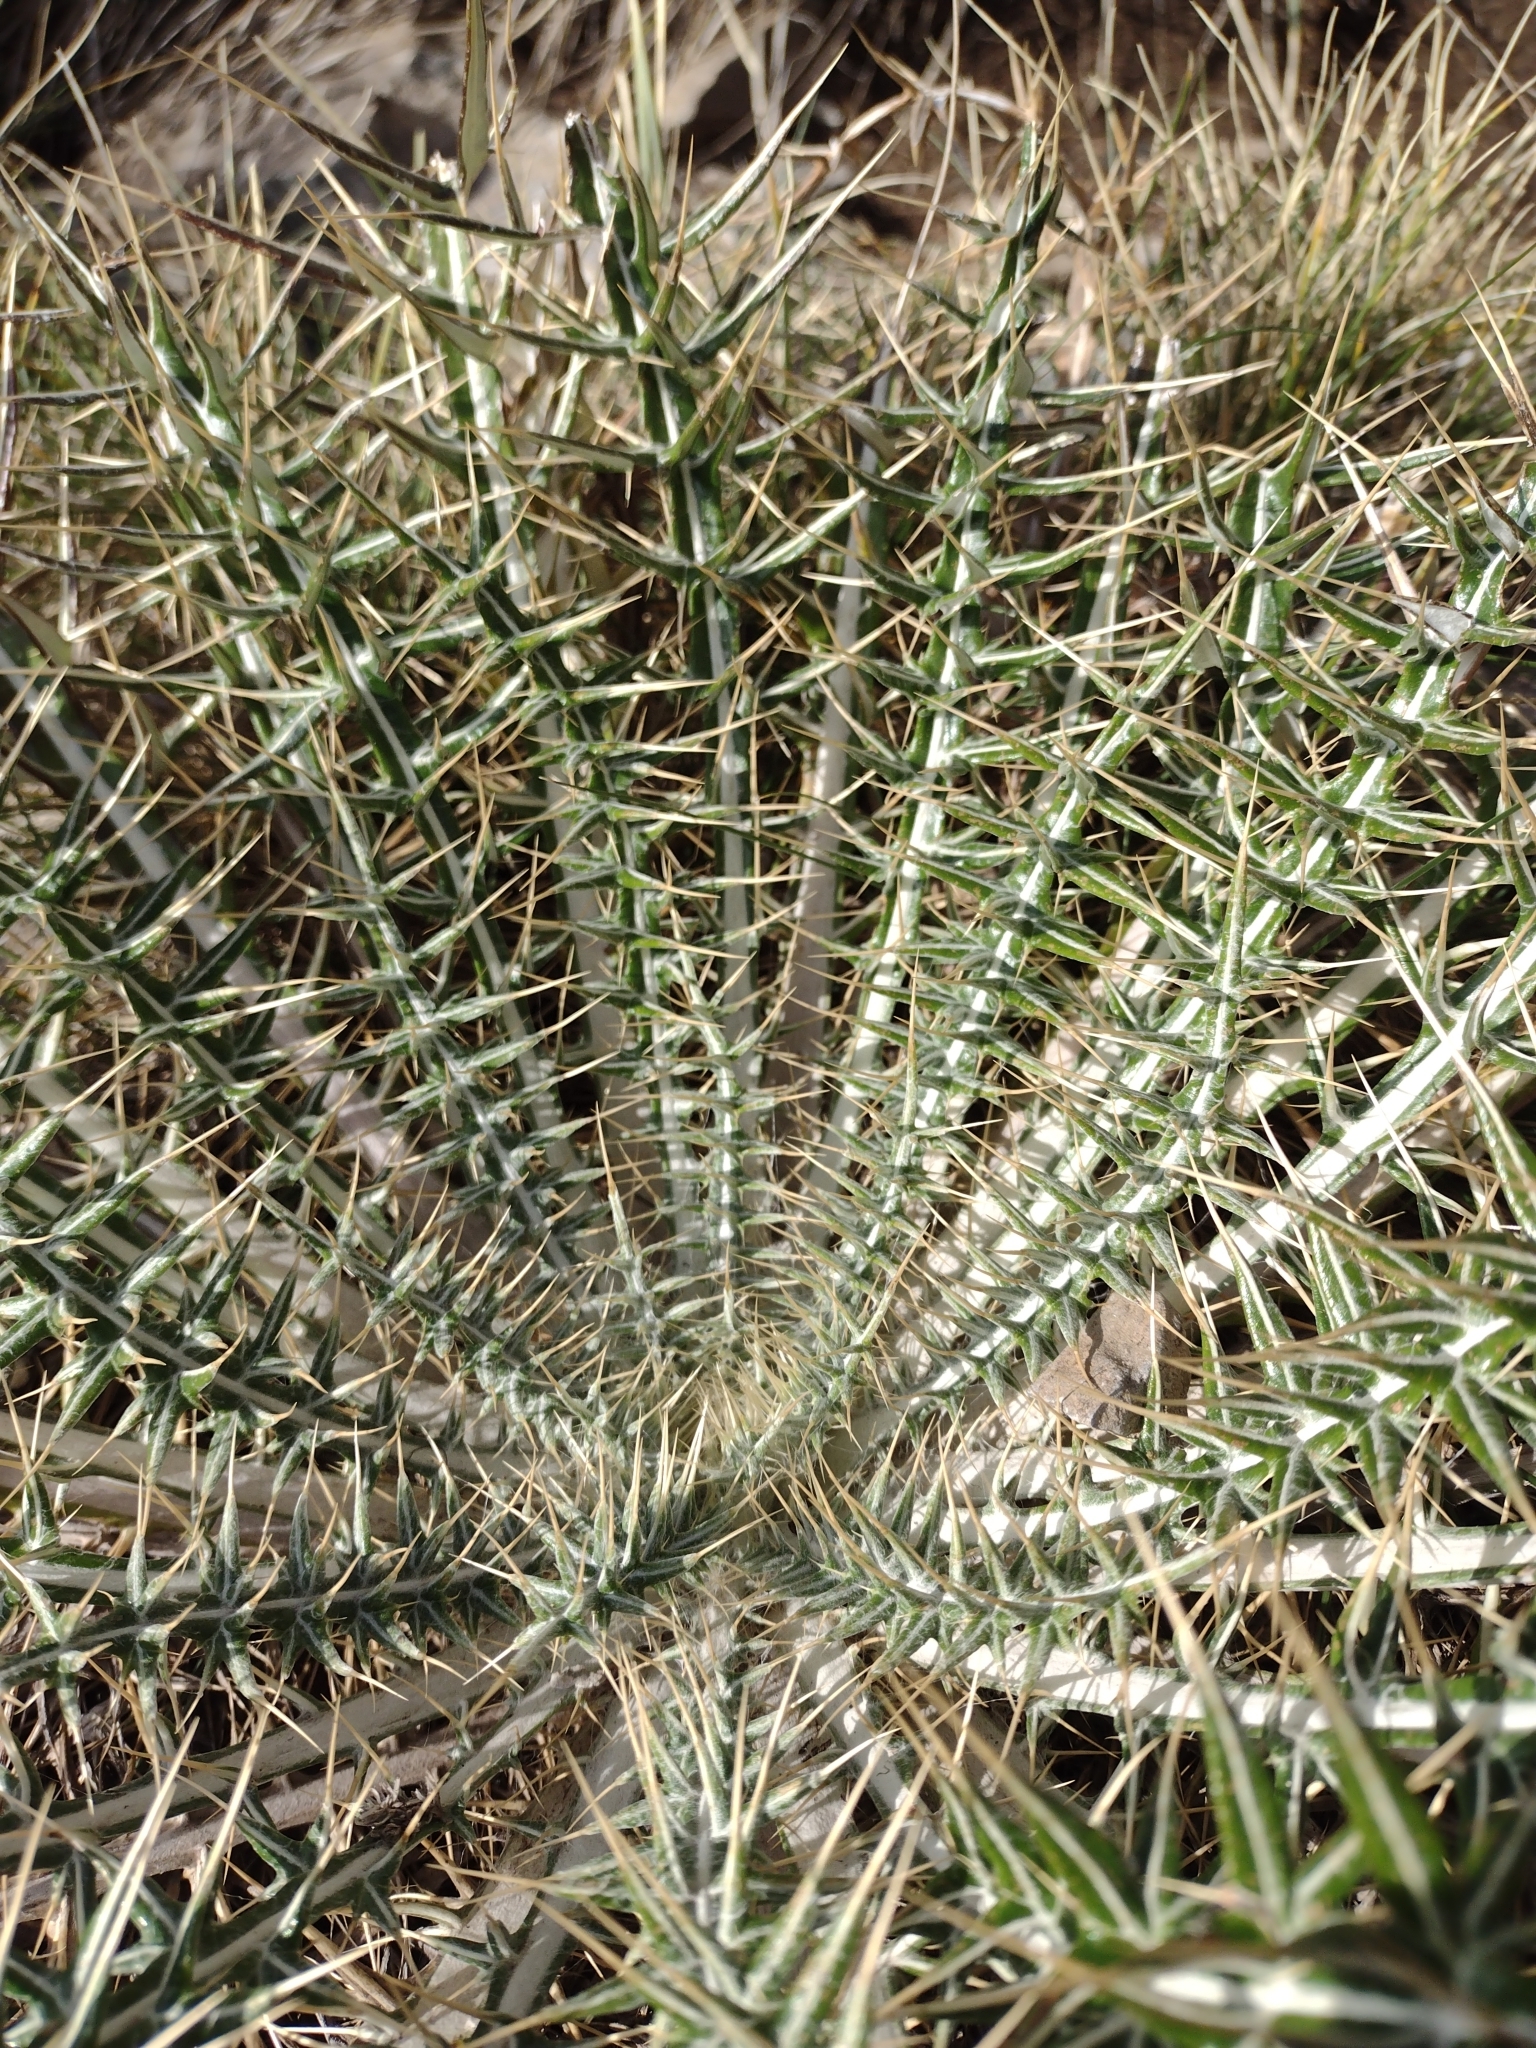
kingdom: Plantae
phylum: Tracheophyta
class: Magnoliopsida
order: Asterales
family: Asteraceae
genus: Ptilostemon
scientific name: Ptilostemon afer
